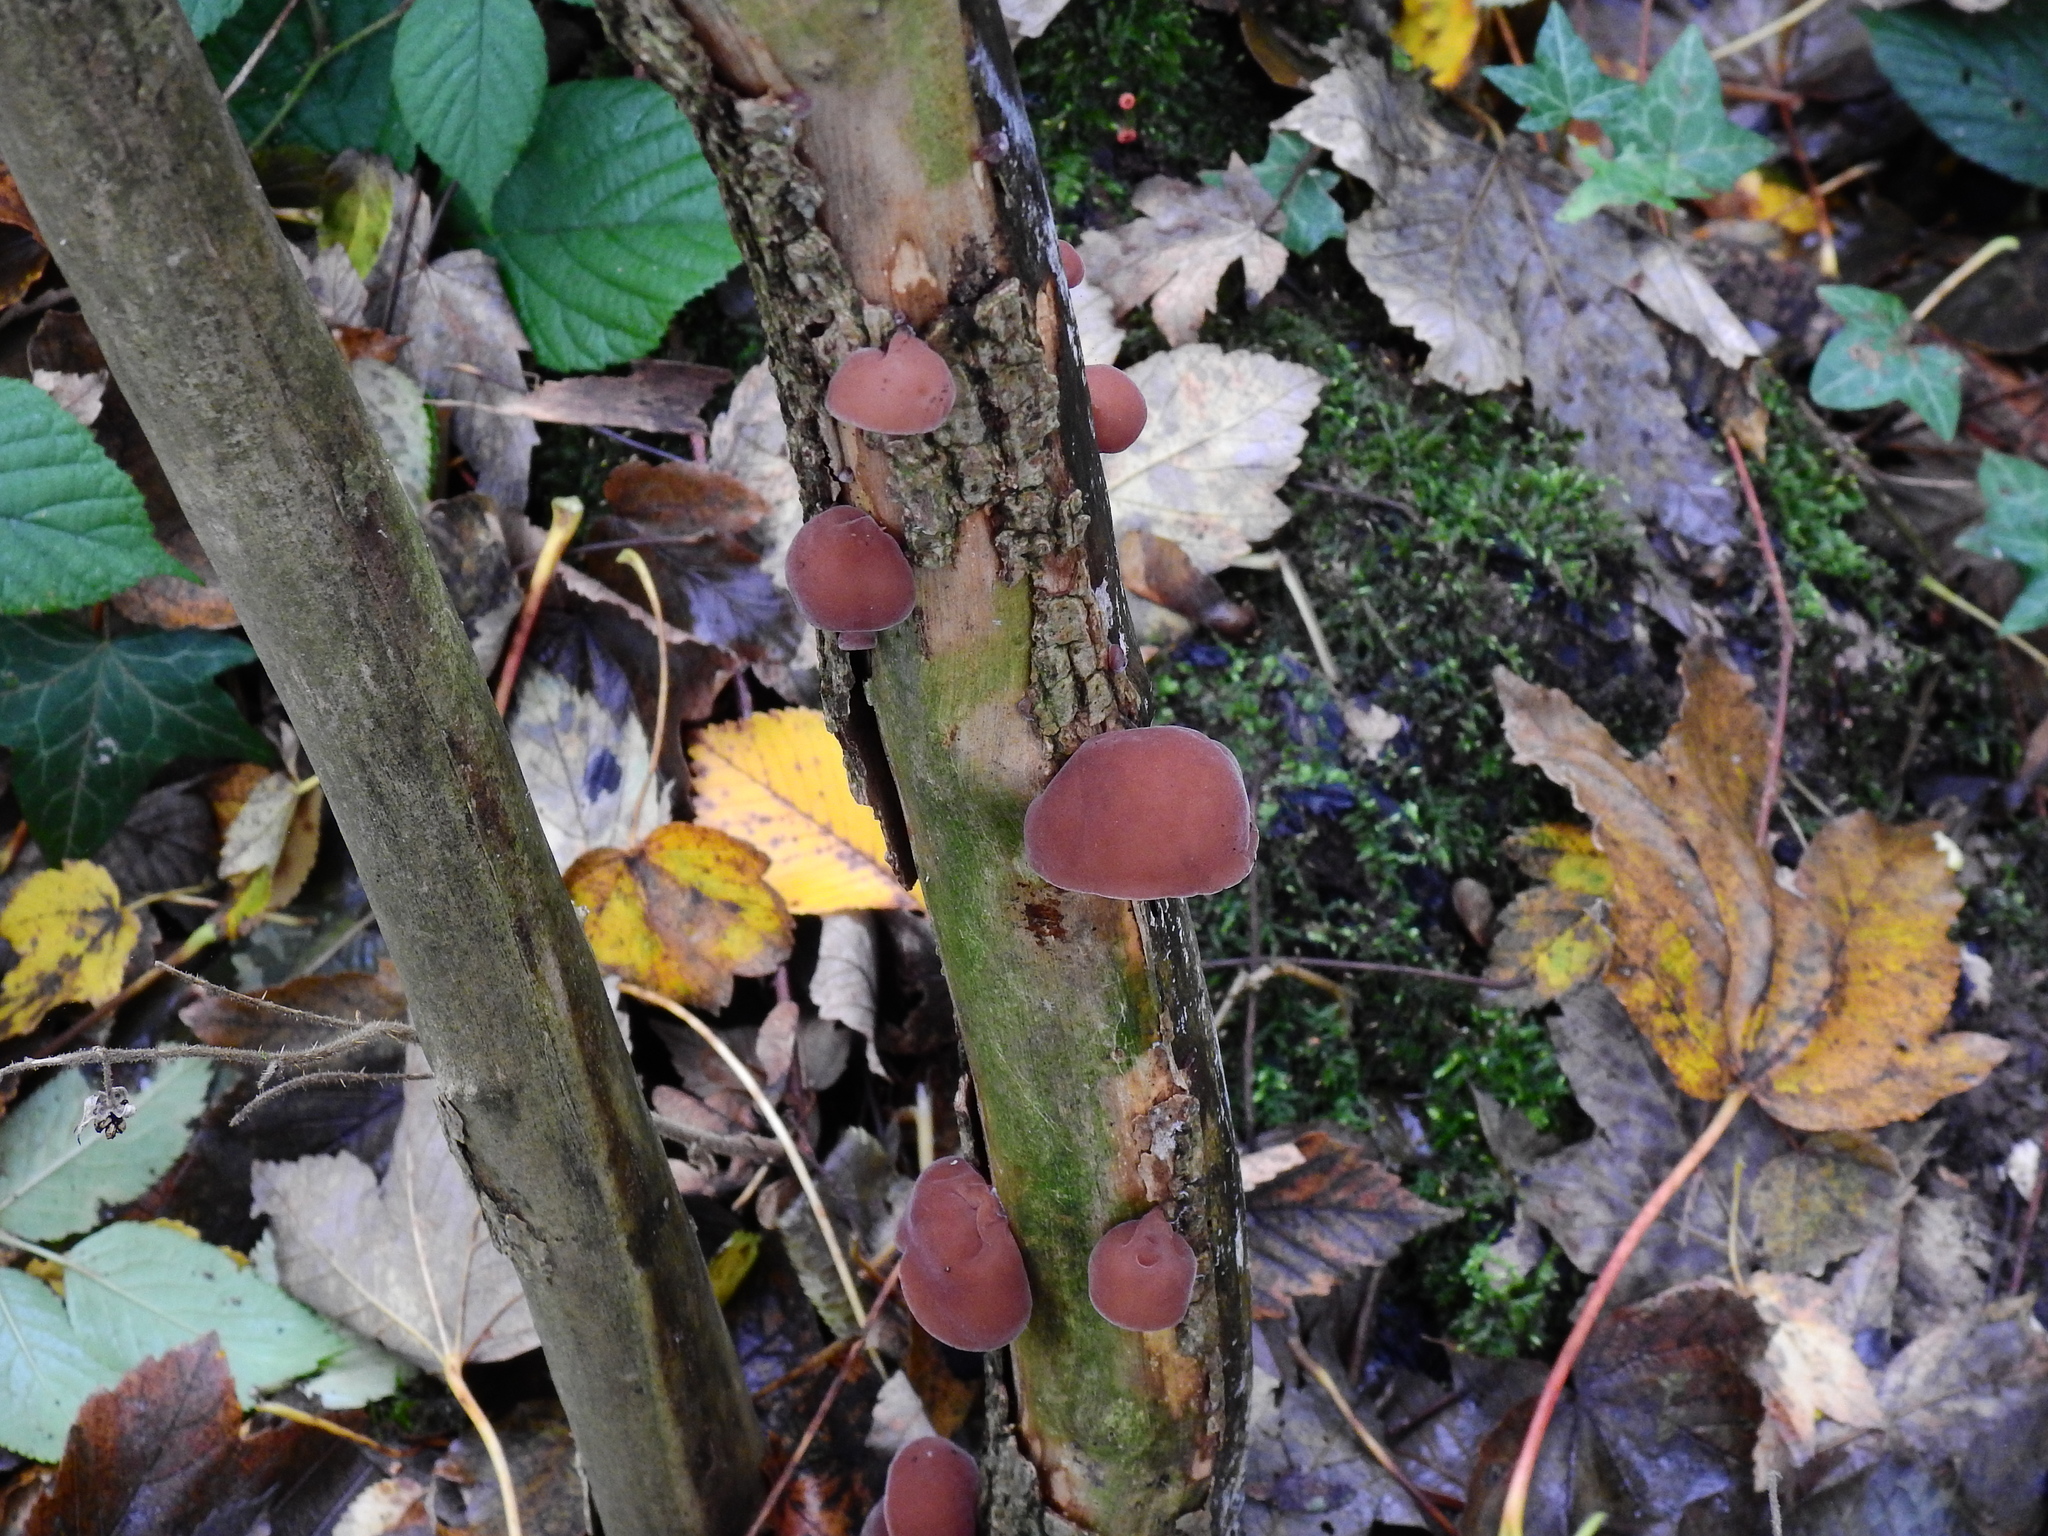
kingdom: Fungi
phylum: Basidiomycota
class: Agaricomycetes
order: Auriculariales
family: Auriculariaceae
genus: Auricularia
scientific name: Auricularia auricula-judae
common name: Jelly ear
